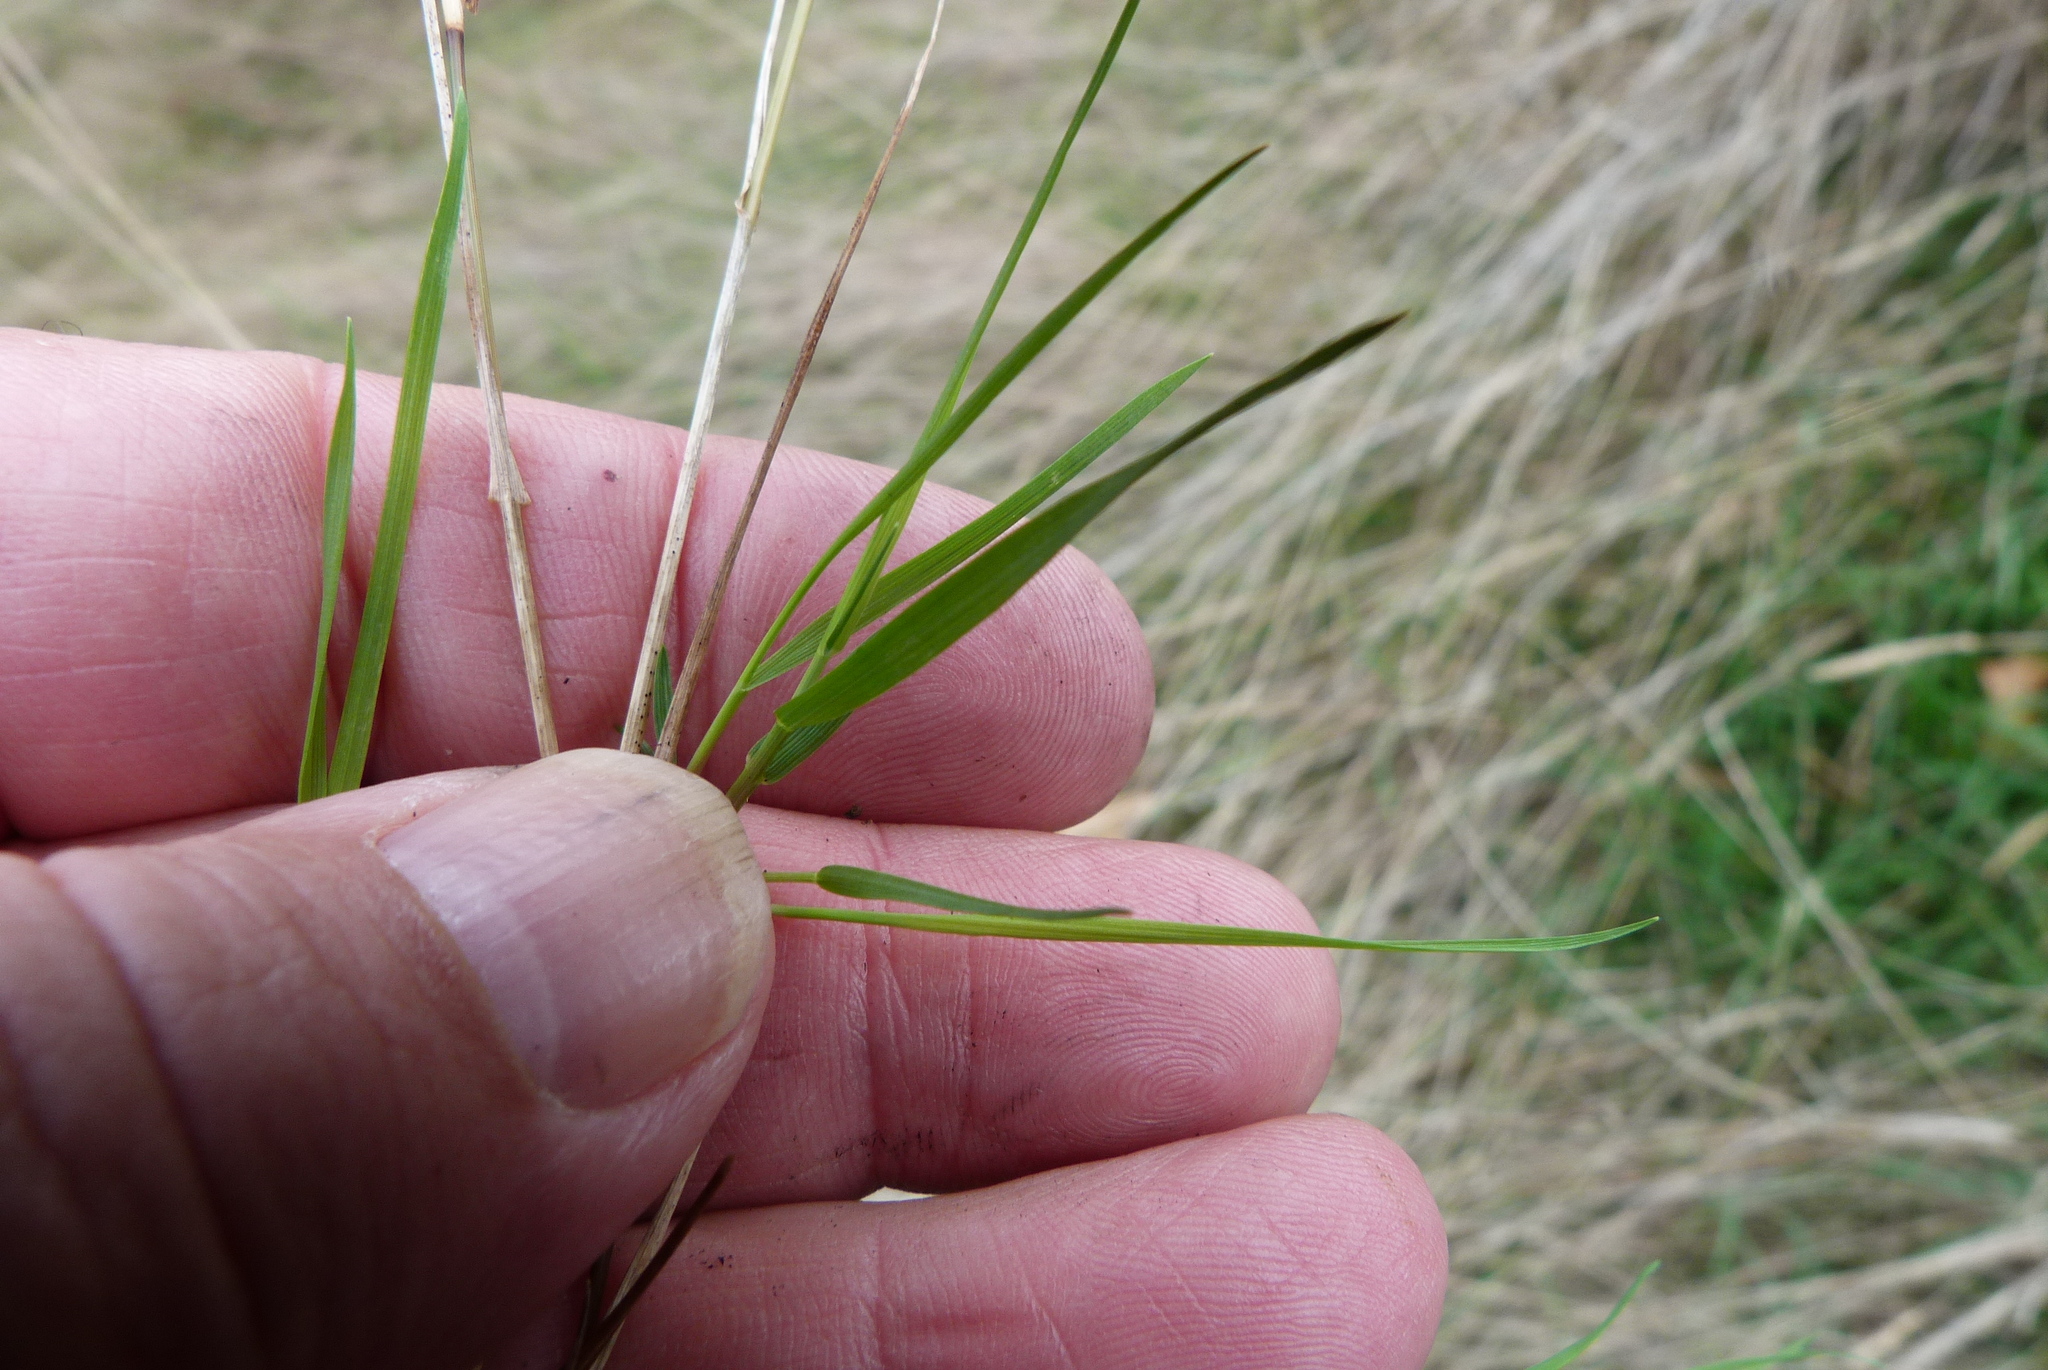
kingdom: Plantae
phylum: Tracheophyta
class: Liliopsida
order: Poales
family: Poaceae
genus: Agrostis
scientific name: Agrostis capillaris
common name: Colonial bentgrass
